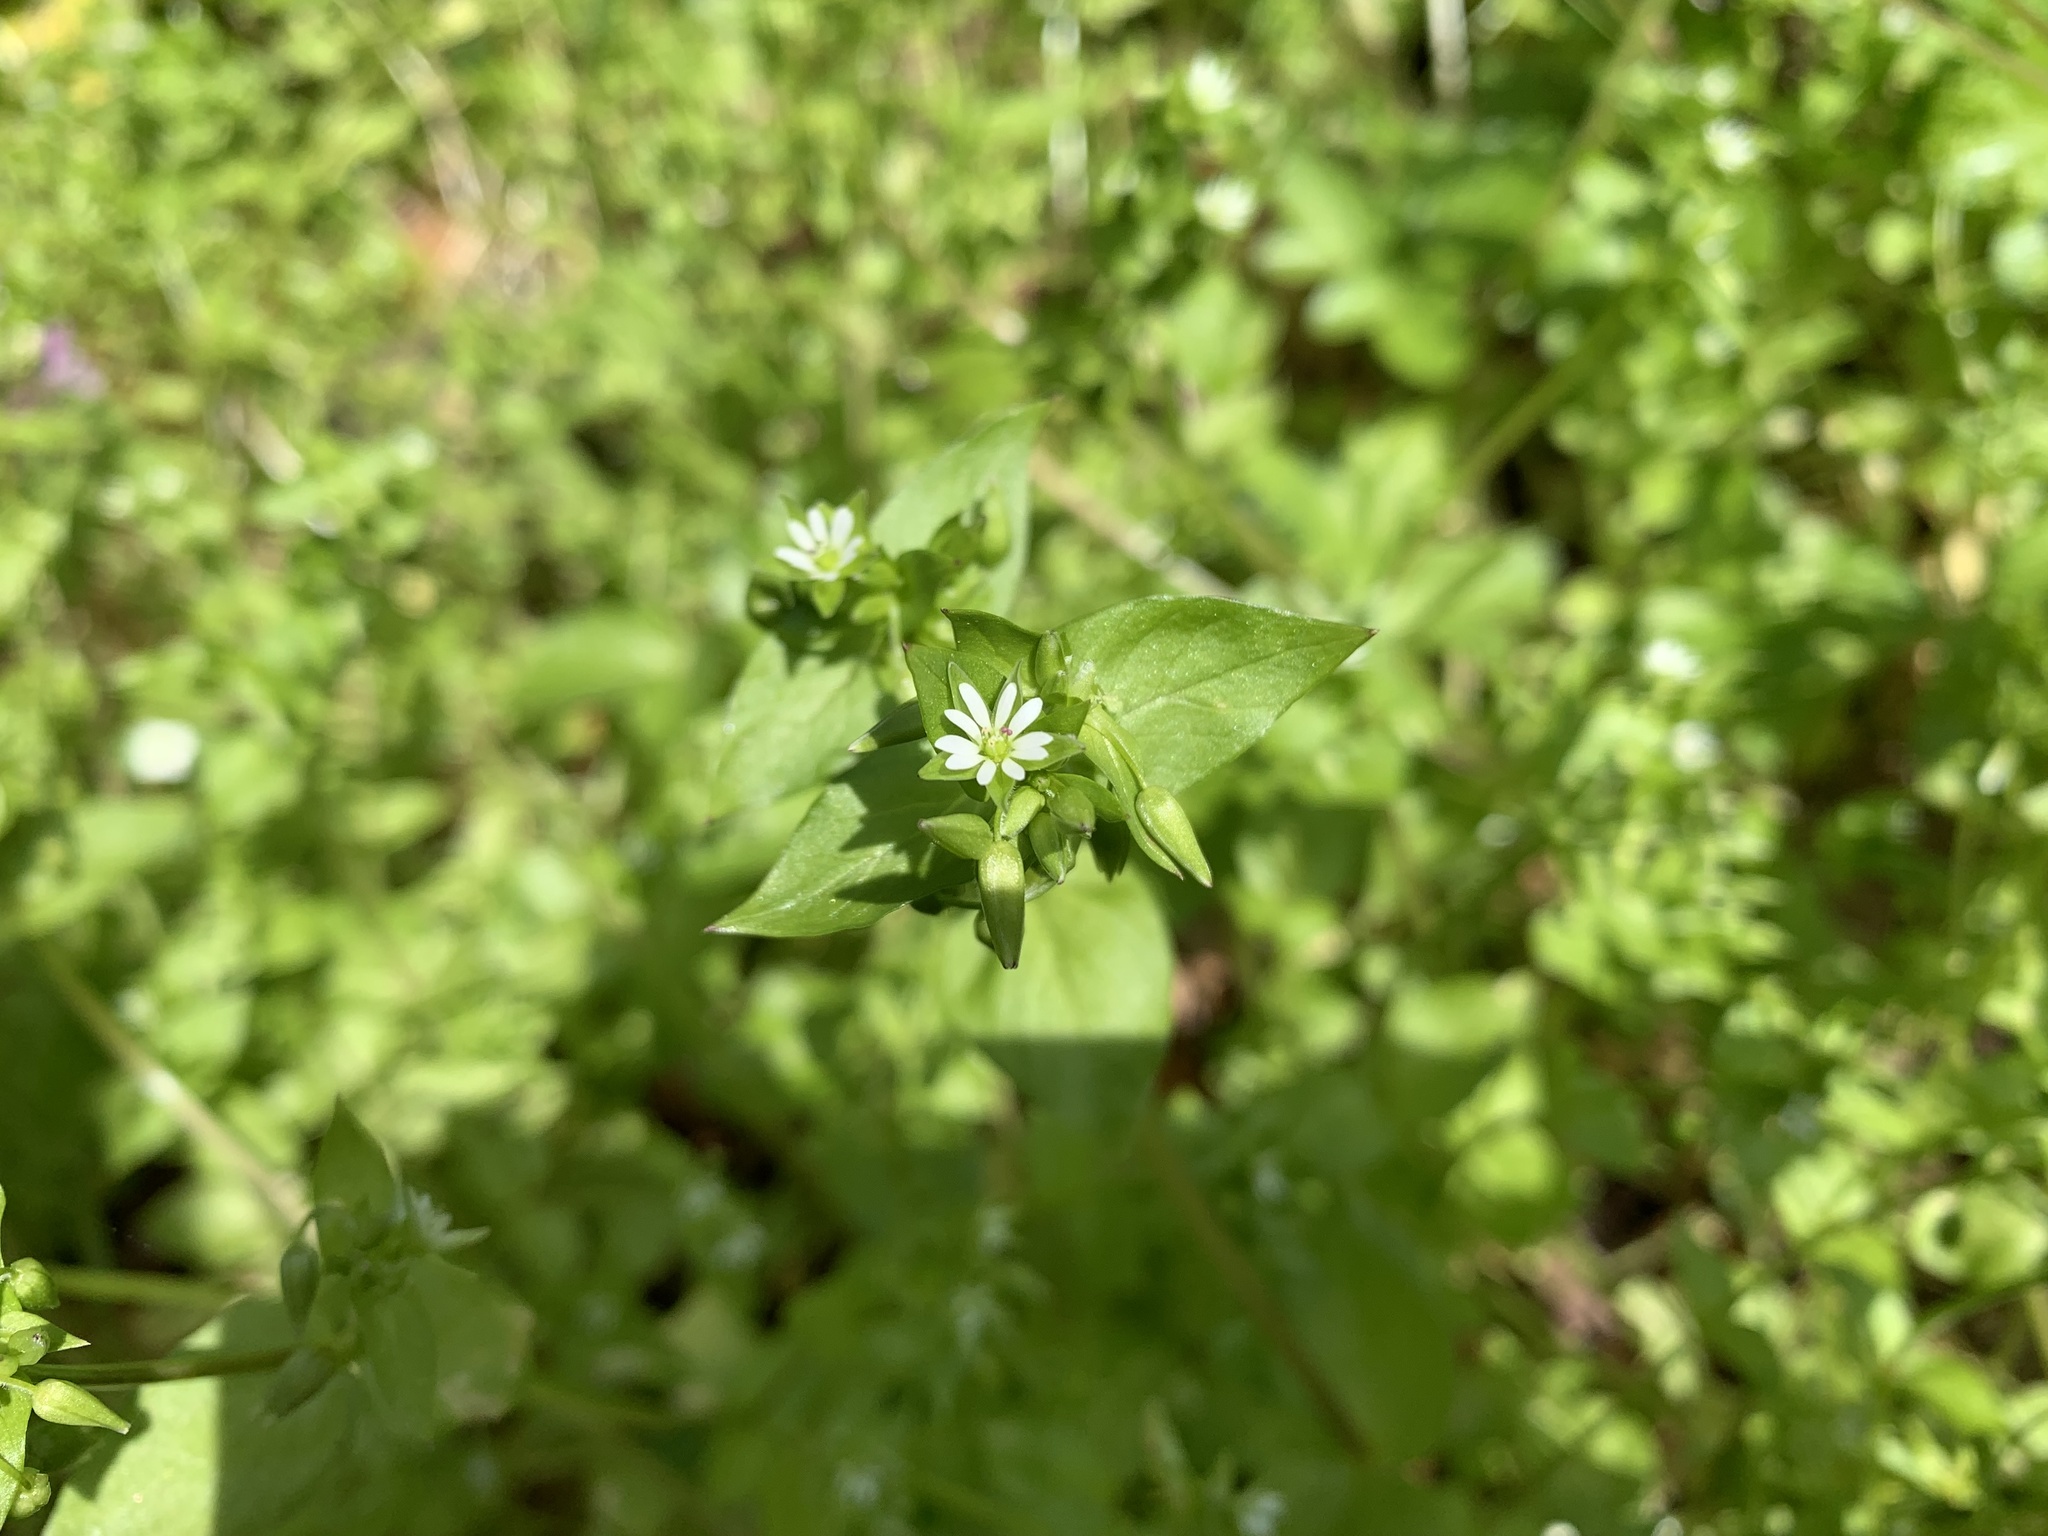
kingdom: Plantae
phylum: Tracheophyta
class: Magnoliopsida
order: Caryophyllales
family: Caryophyllaceae
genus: Stellaria
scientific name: Stellaria
